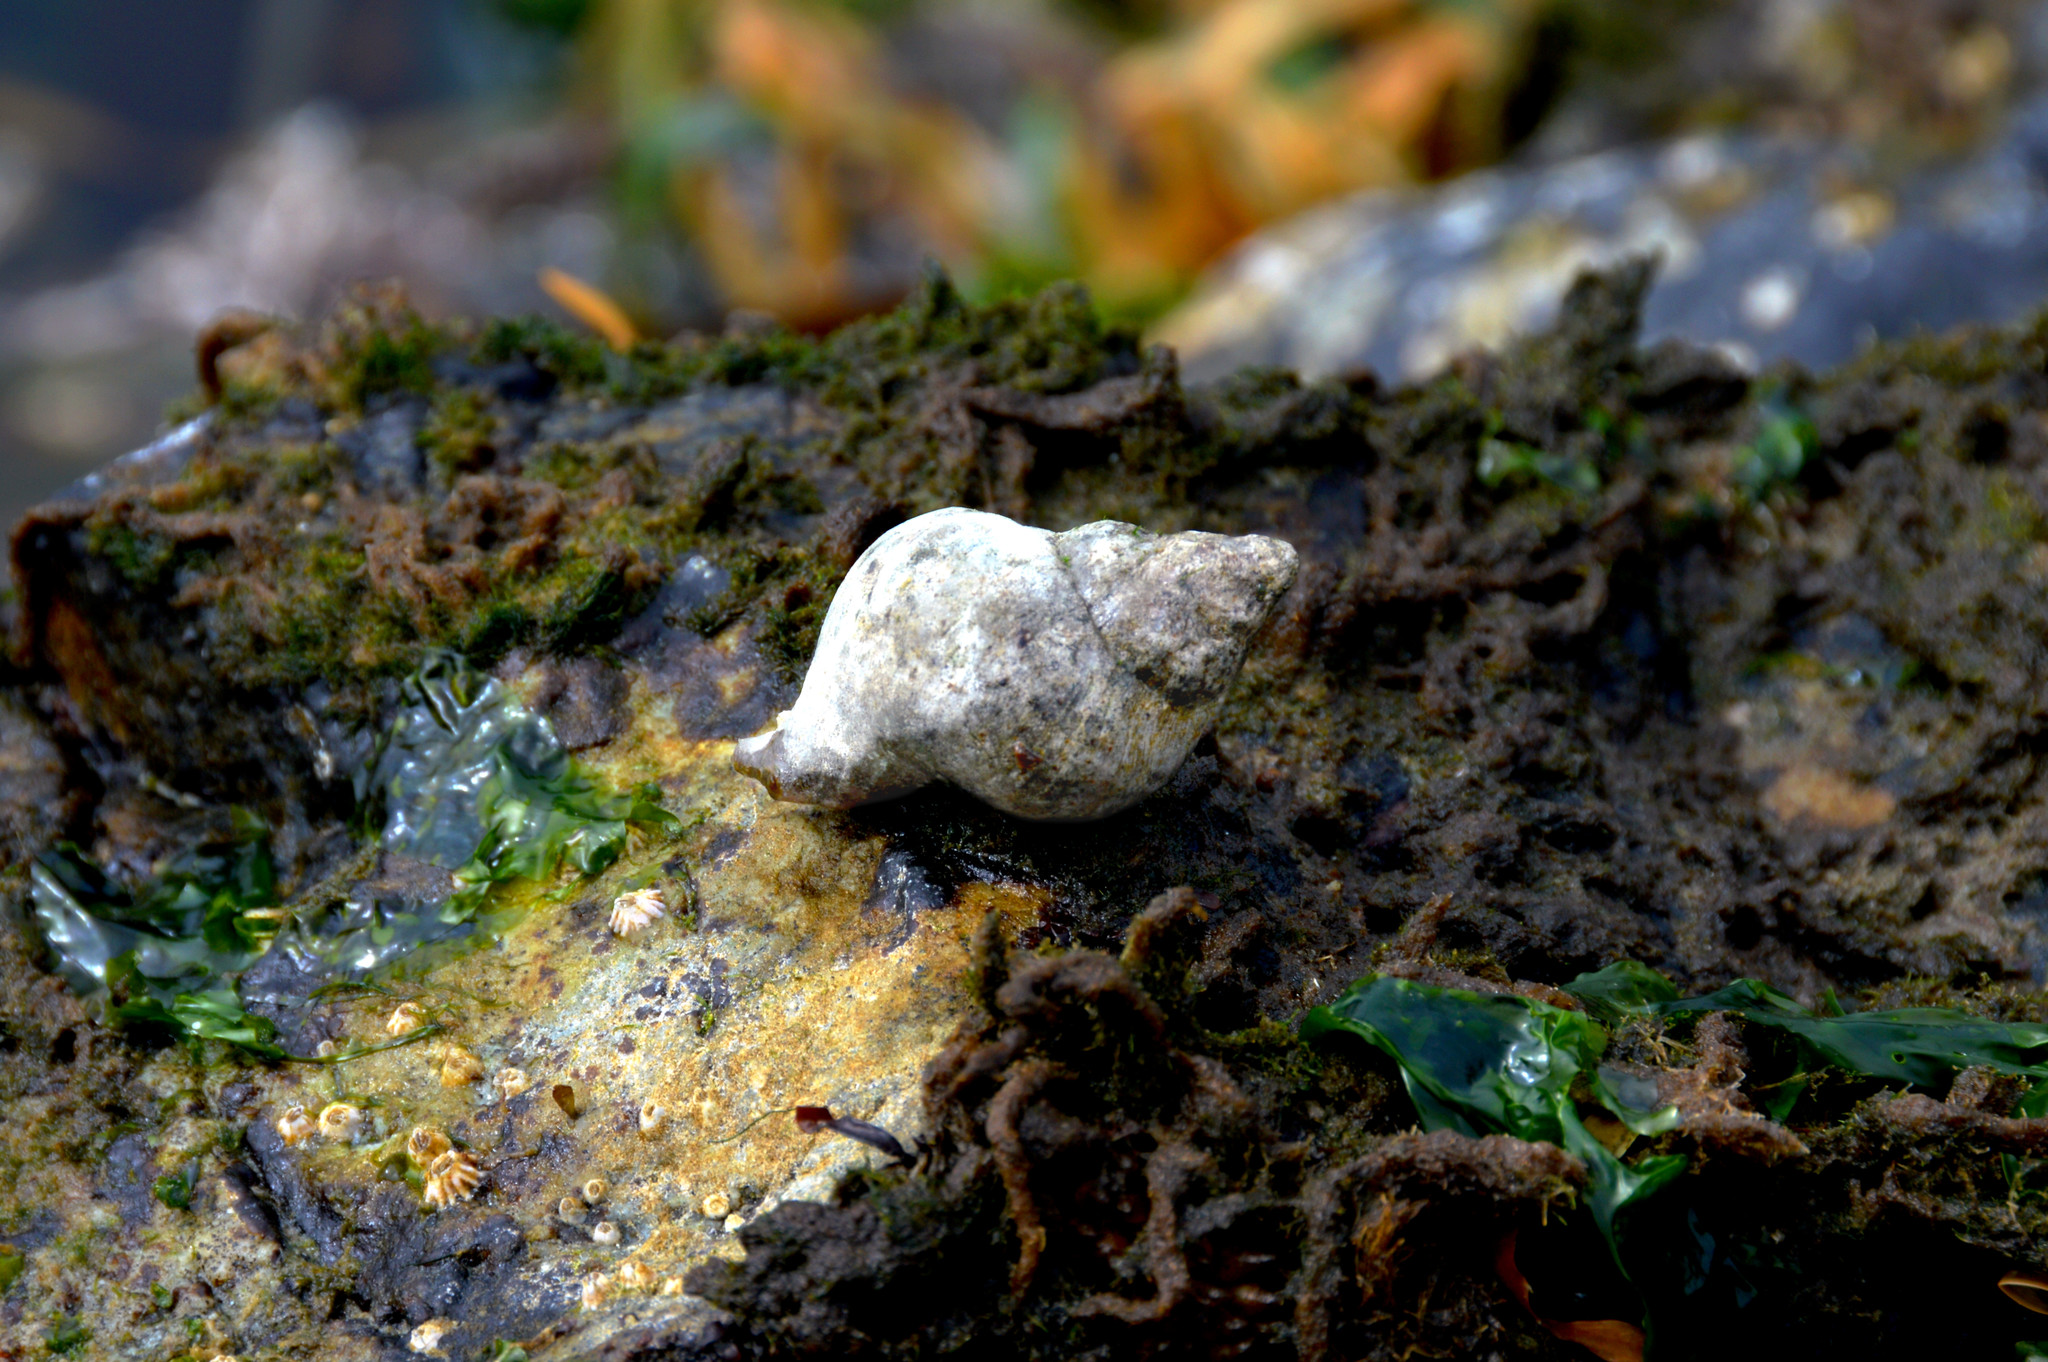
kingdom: Animalia
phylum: Mollusca
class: Gastropoda
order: Neogastropoda
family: Muricidae
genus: Nucella
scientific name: Nucella lamellosa
